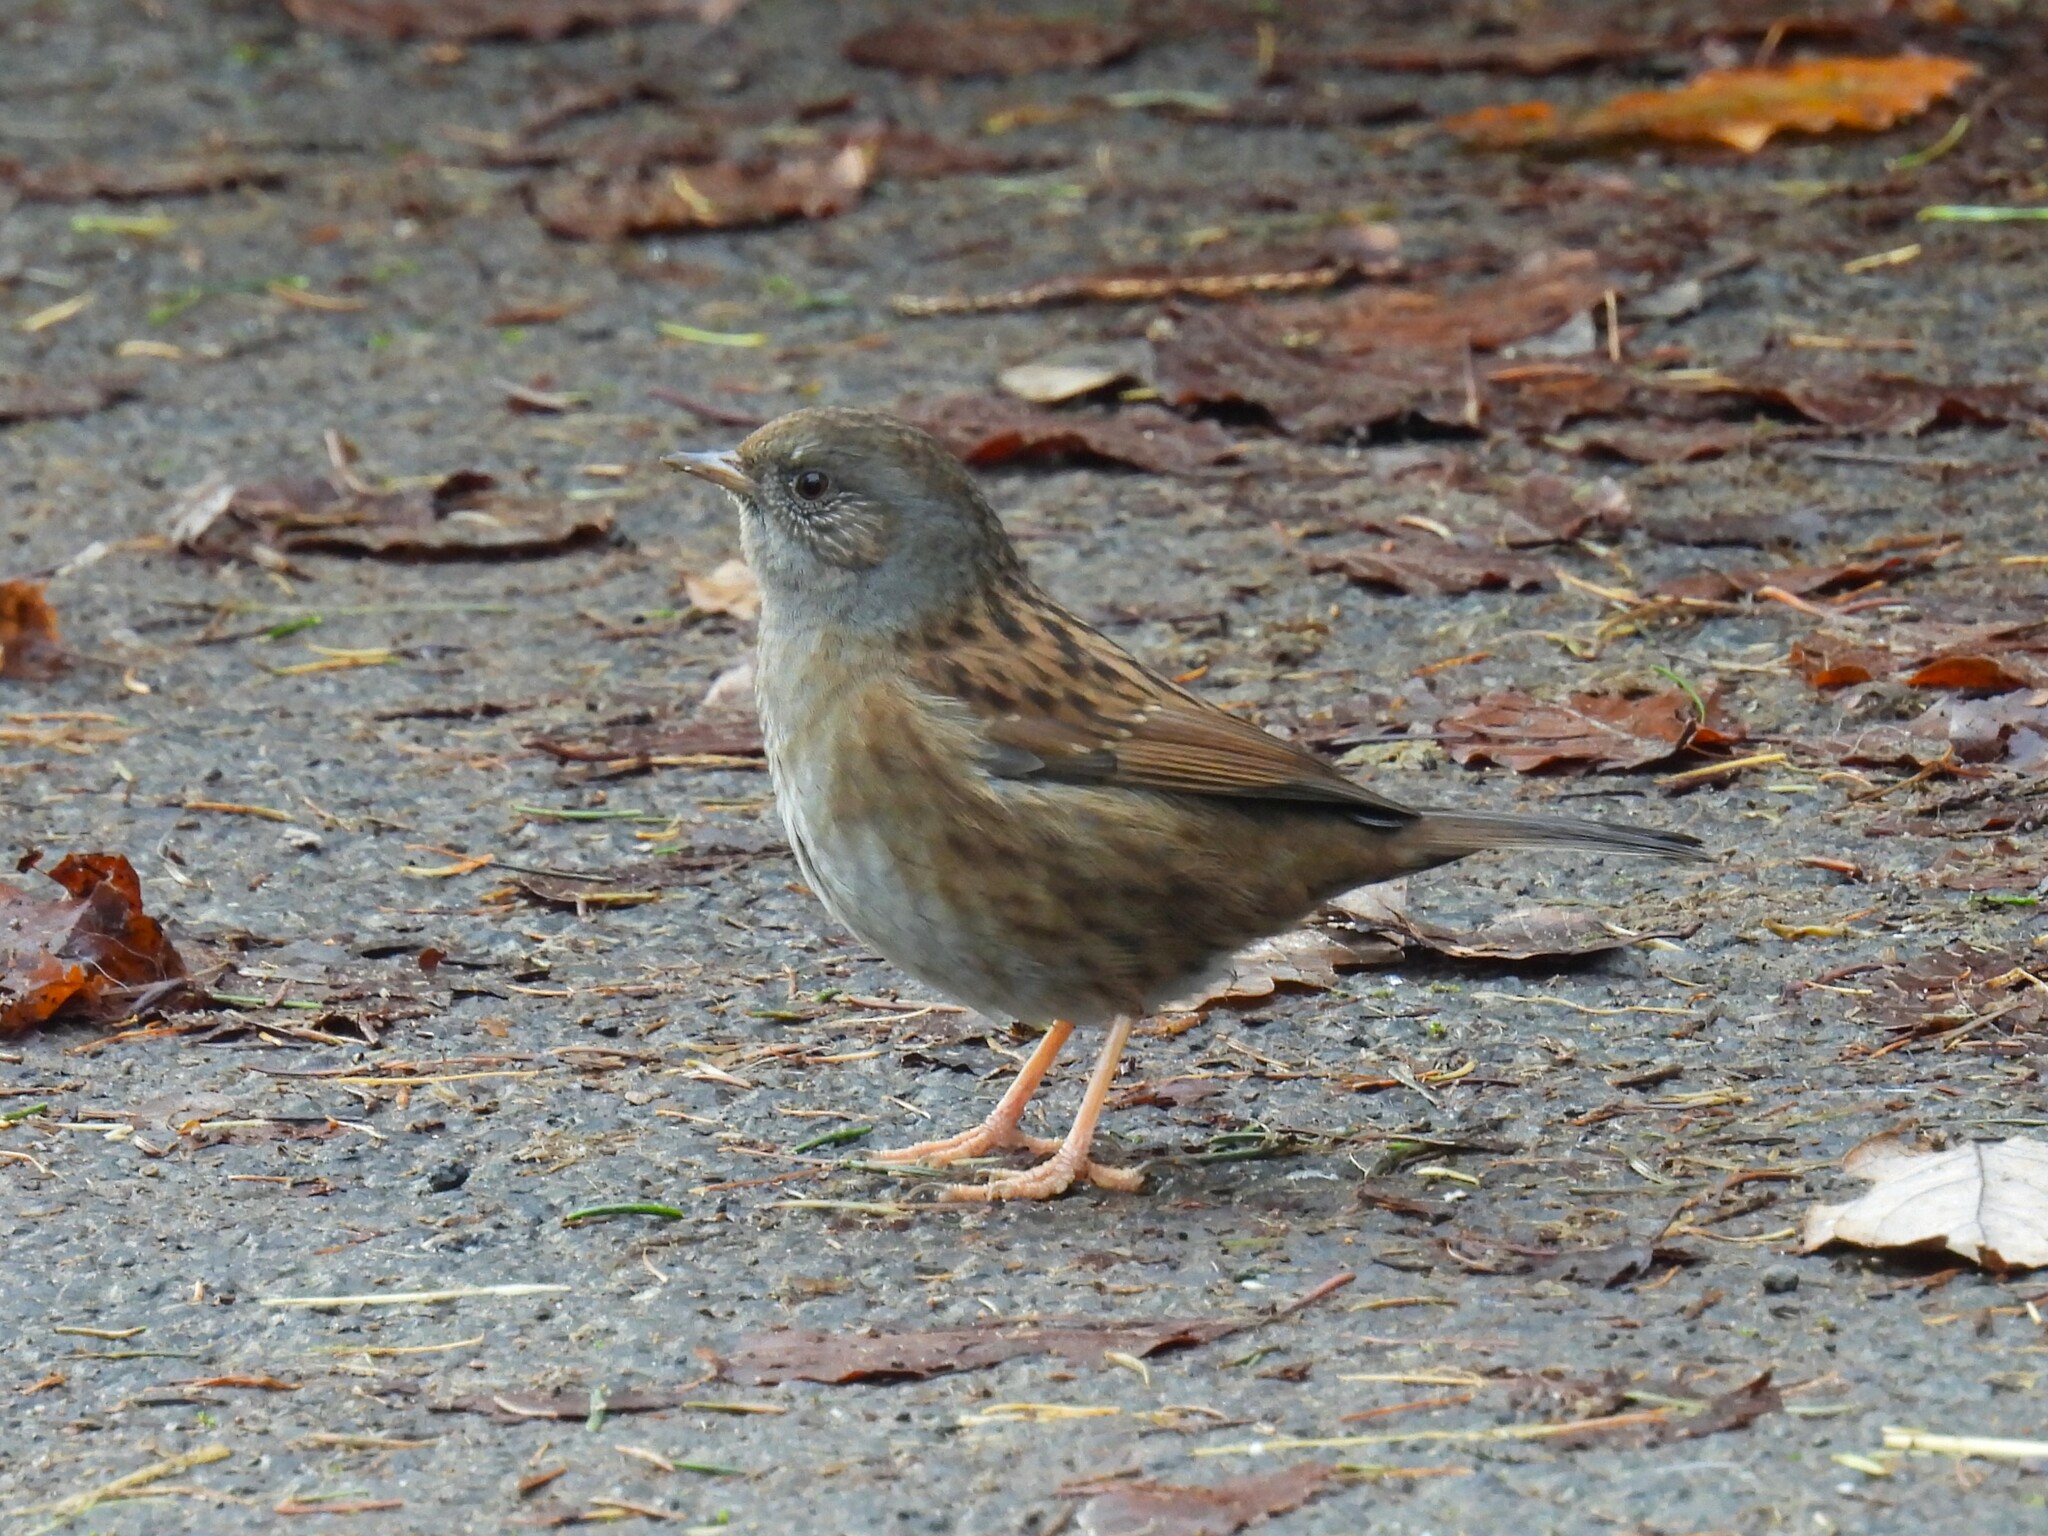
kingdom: Animalia
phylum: Chordata
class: Aves
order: Passeriformes
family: Prunellidae
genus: Prunella
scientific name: Prunella modularis
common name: Dunnock
